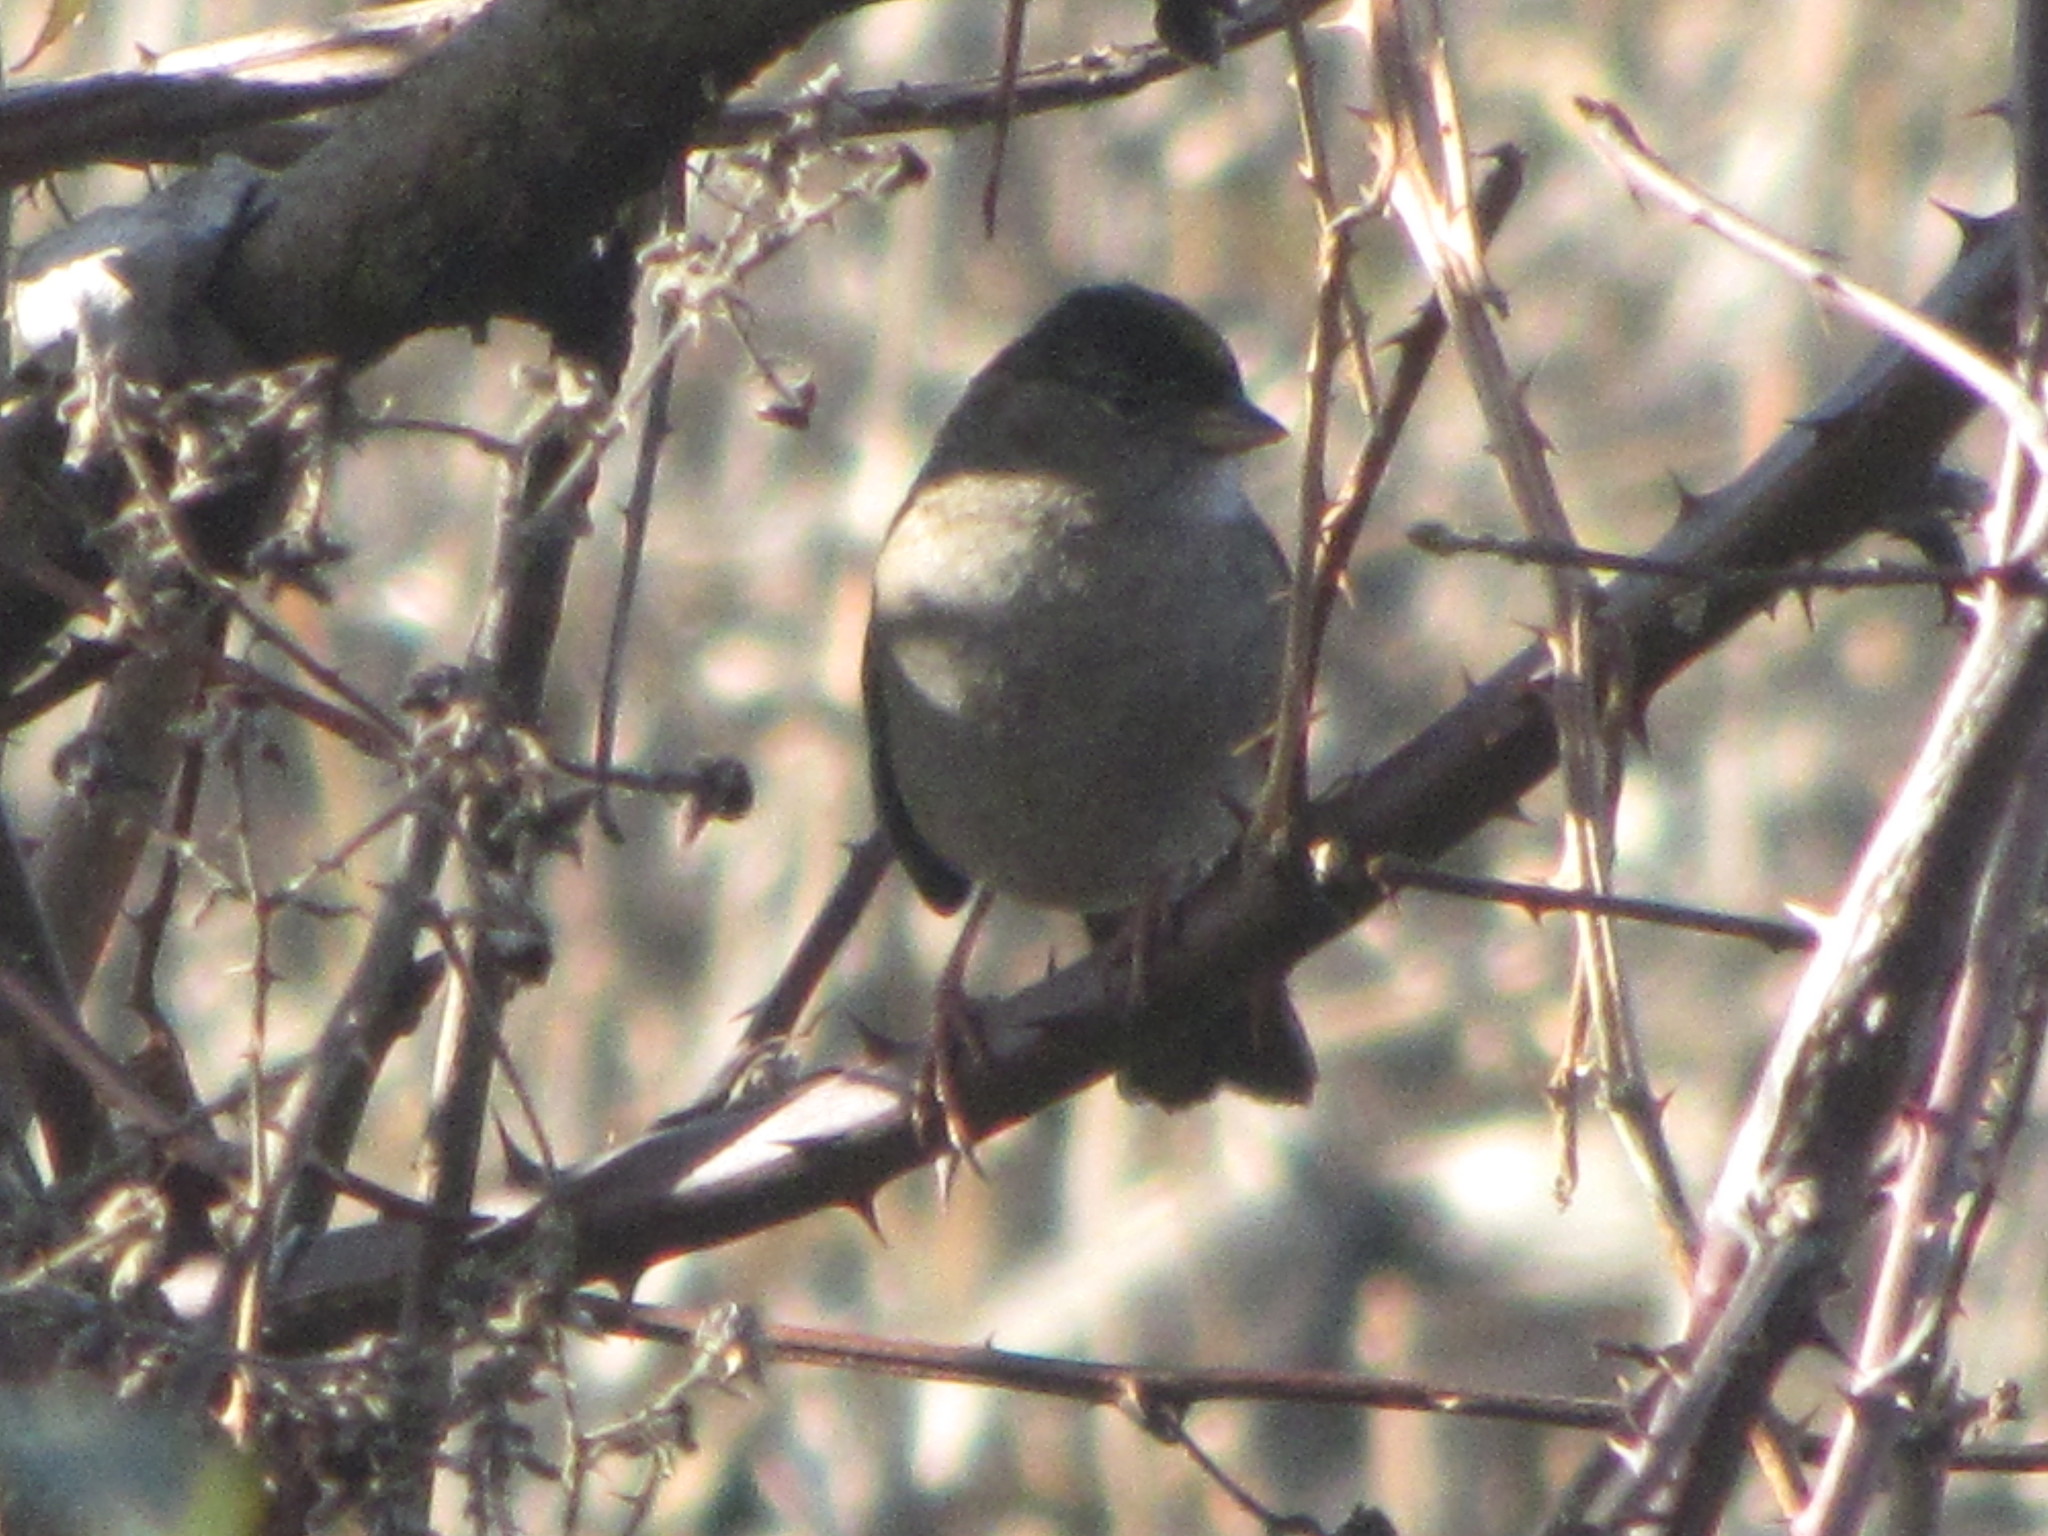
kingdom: Animalia
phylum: Chordata
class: Aves
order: Passeriformes
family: Passerellidae
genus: Zonotrichia
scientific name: Zonotrichia atricapilla
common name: Golden-crowned sparrow
